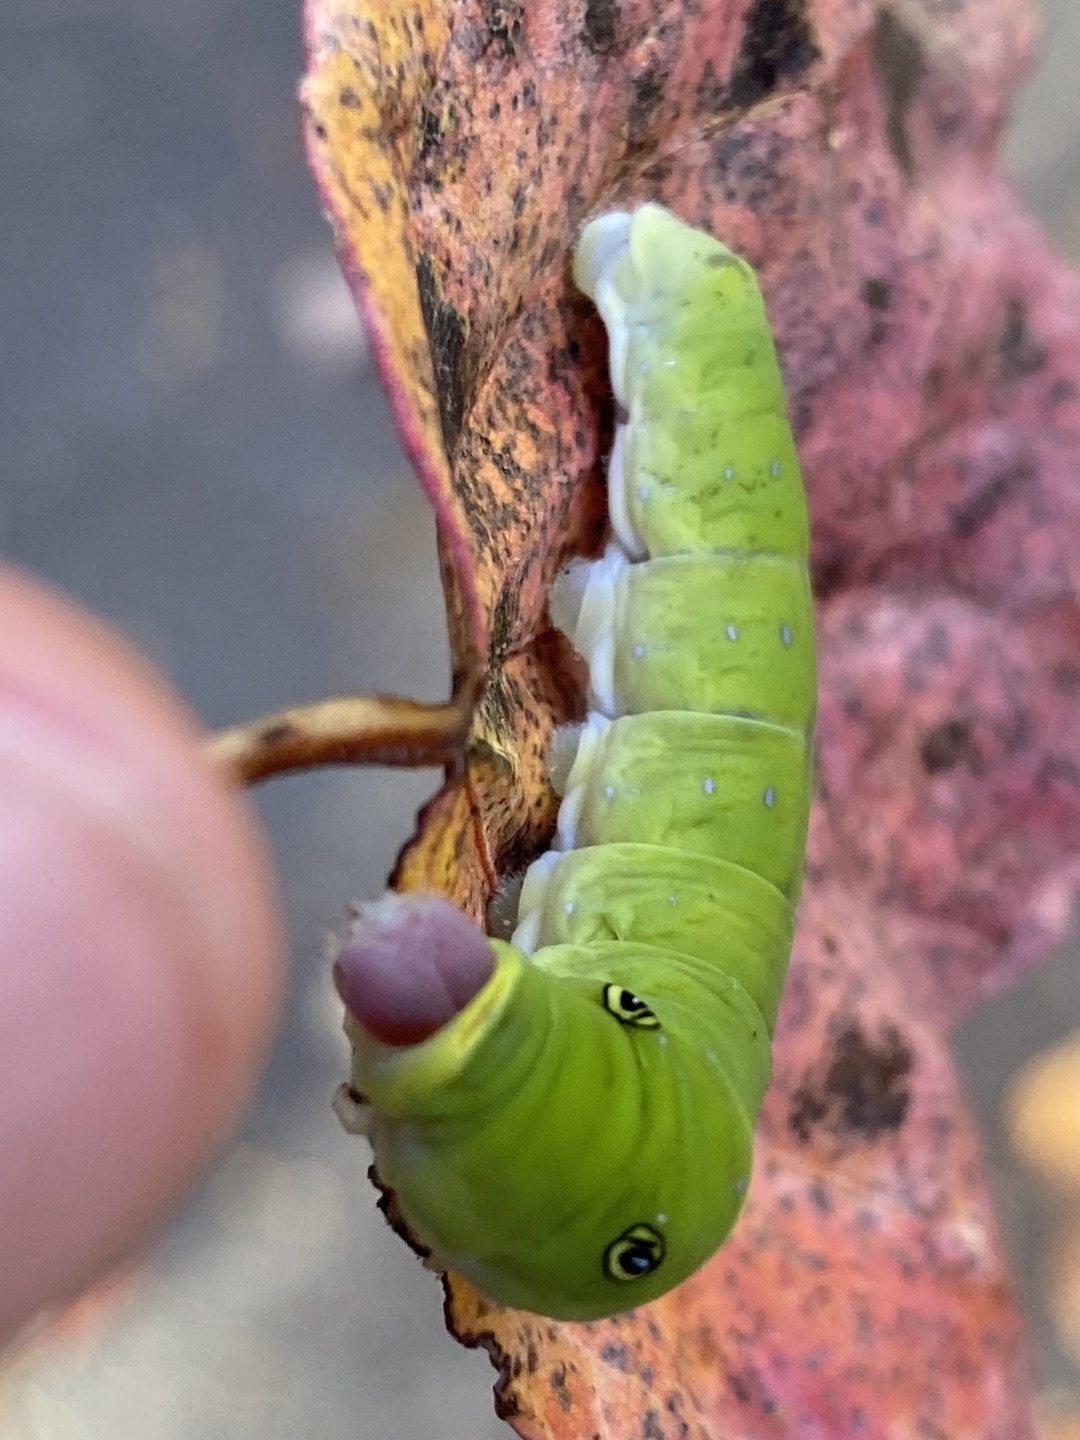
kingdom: Animalia
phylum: Arthropoda
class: Insecta
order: Lepidoptera
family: Papilionidae
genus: Papilio
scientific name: Papilio glaucus
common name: Tiger swallowtail
